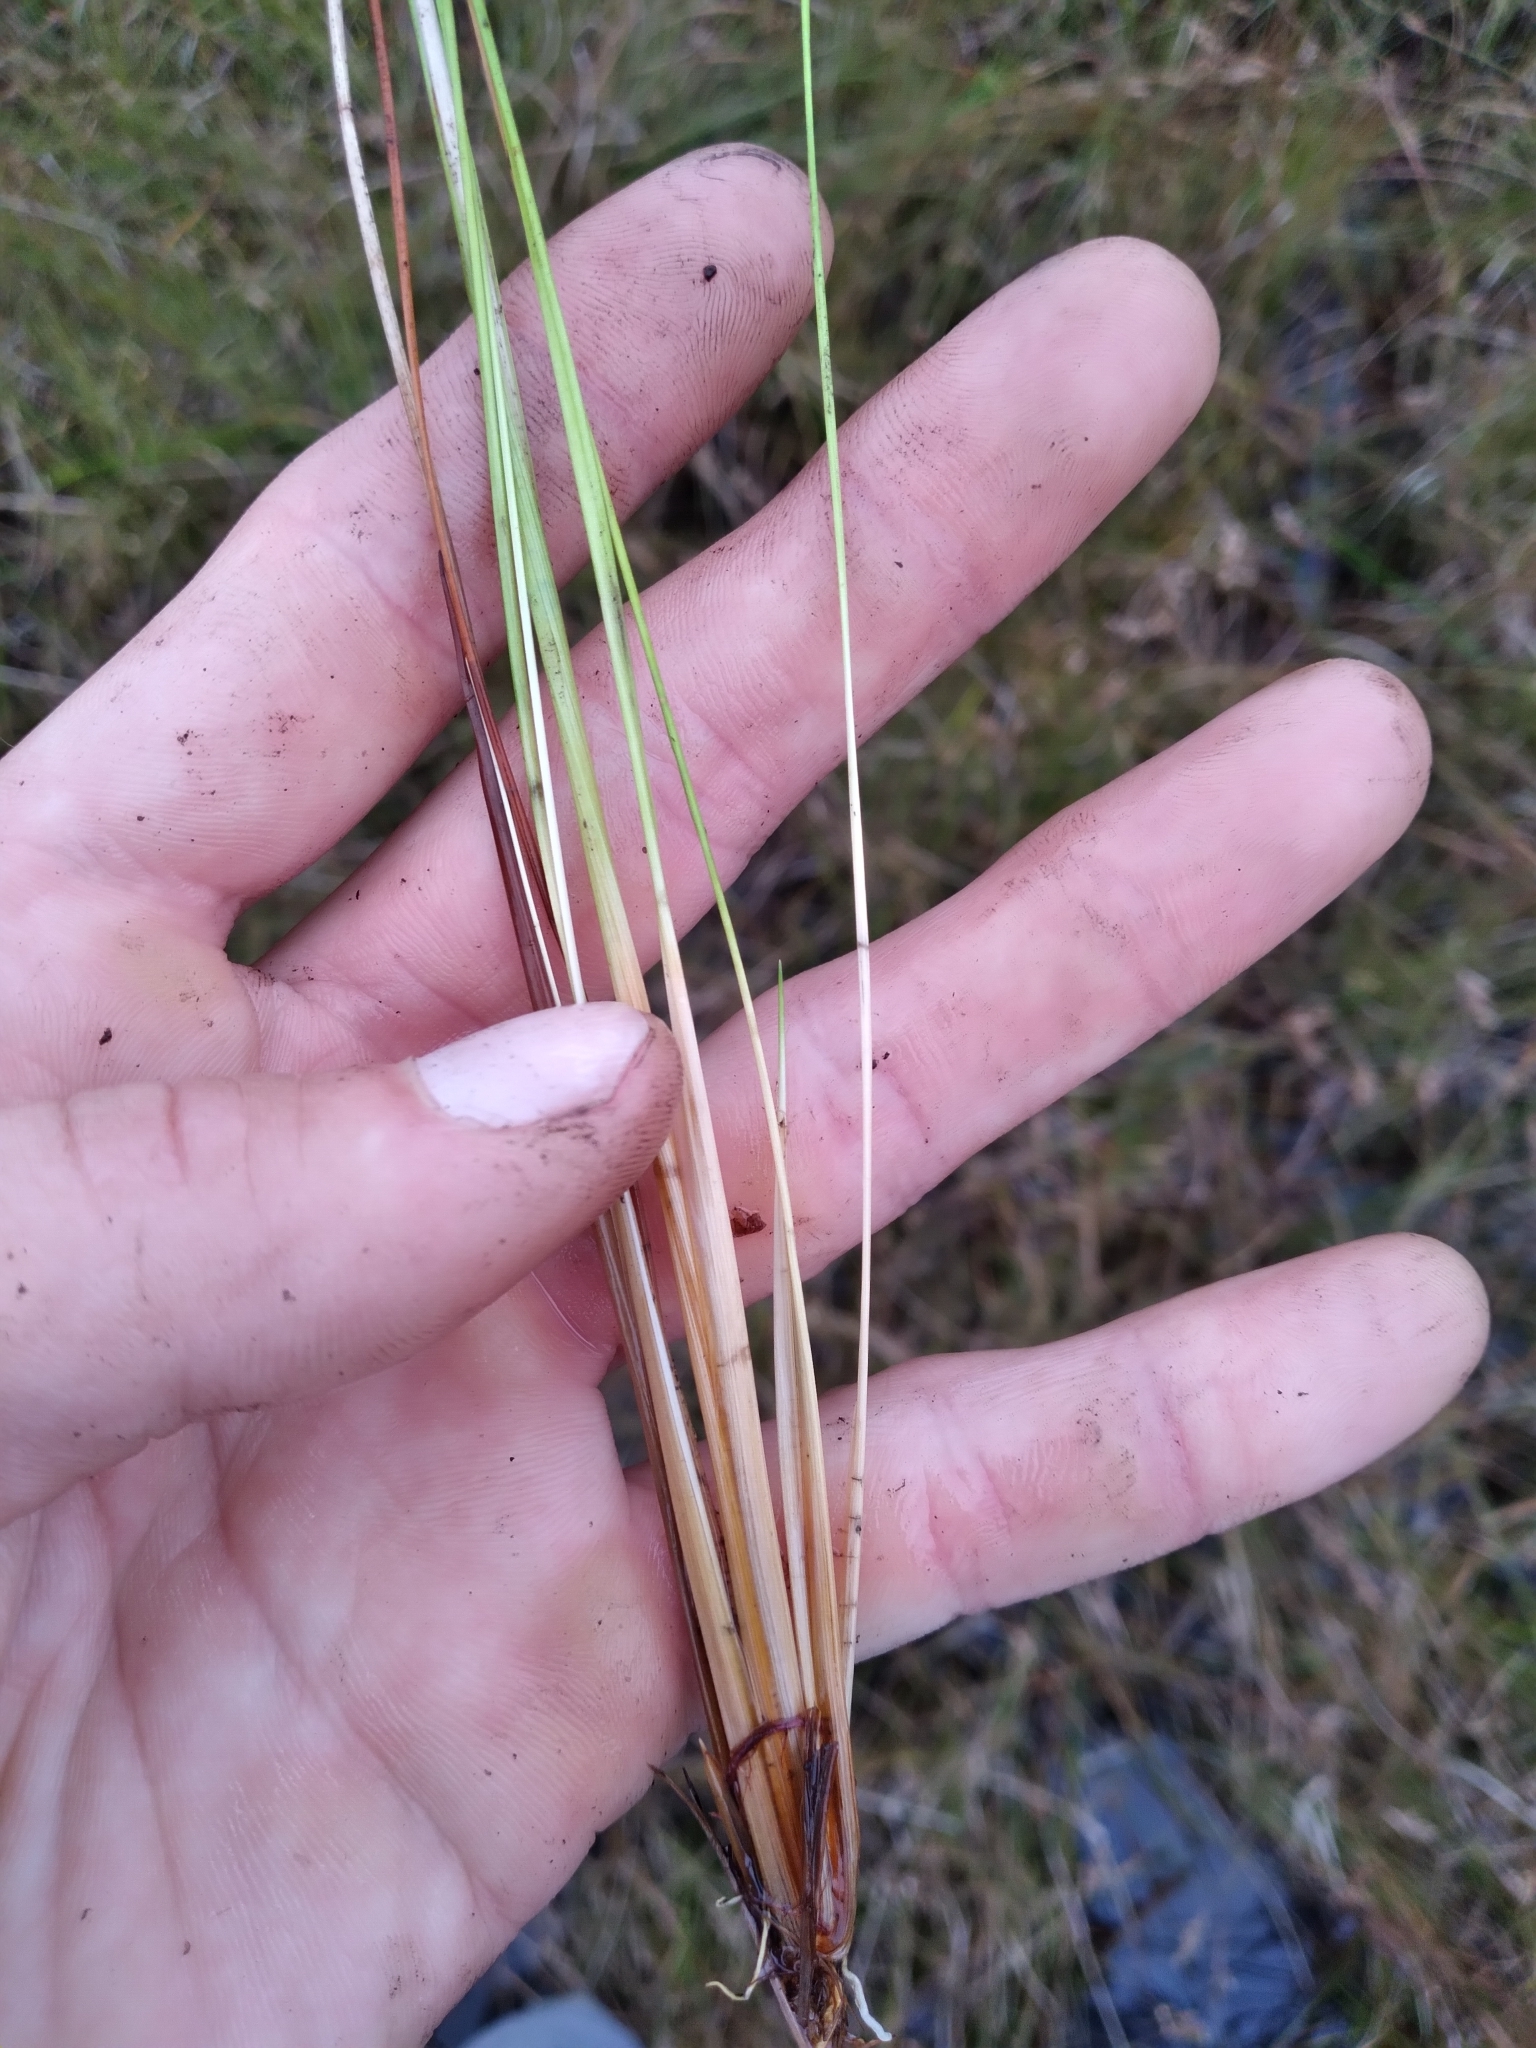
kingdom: Plantae
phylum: Tracheophyta
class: Liliopsida
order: Poales
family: Xyridaceae
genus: Xyris
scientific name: Xyris stenotera
